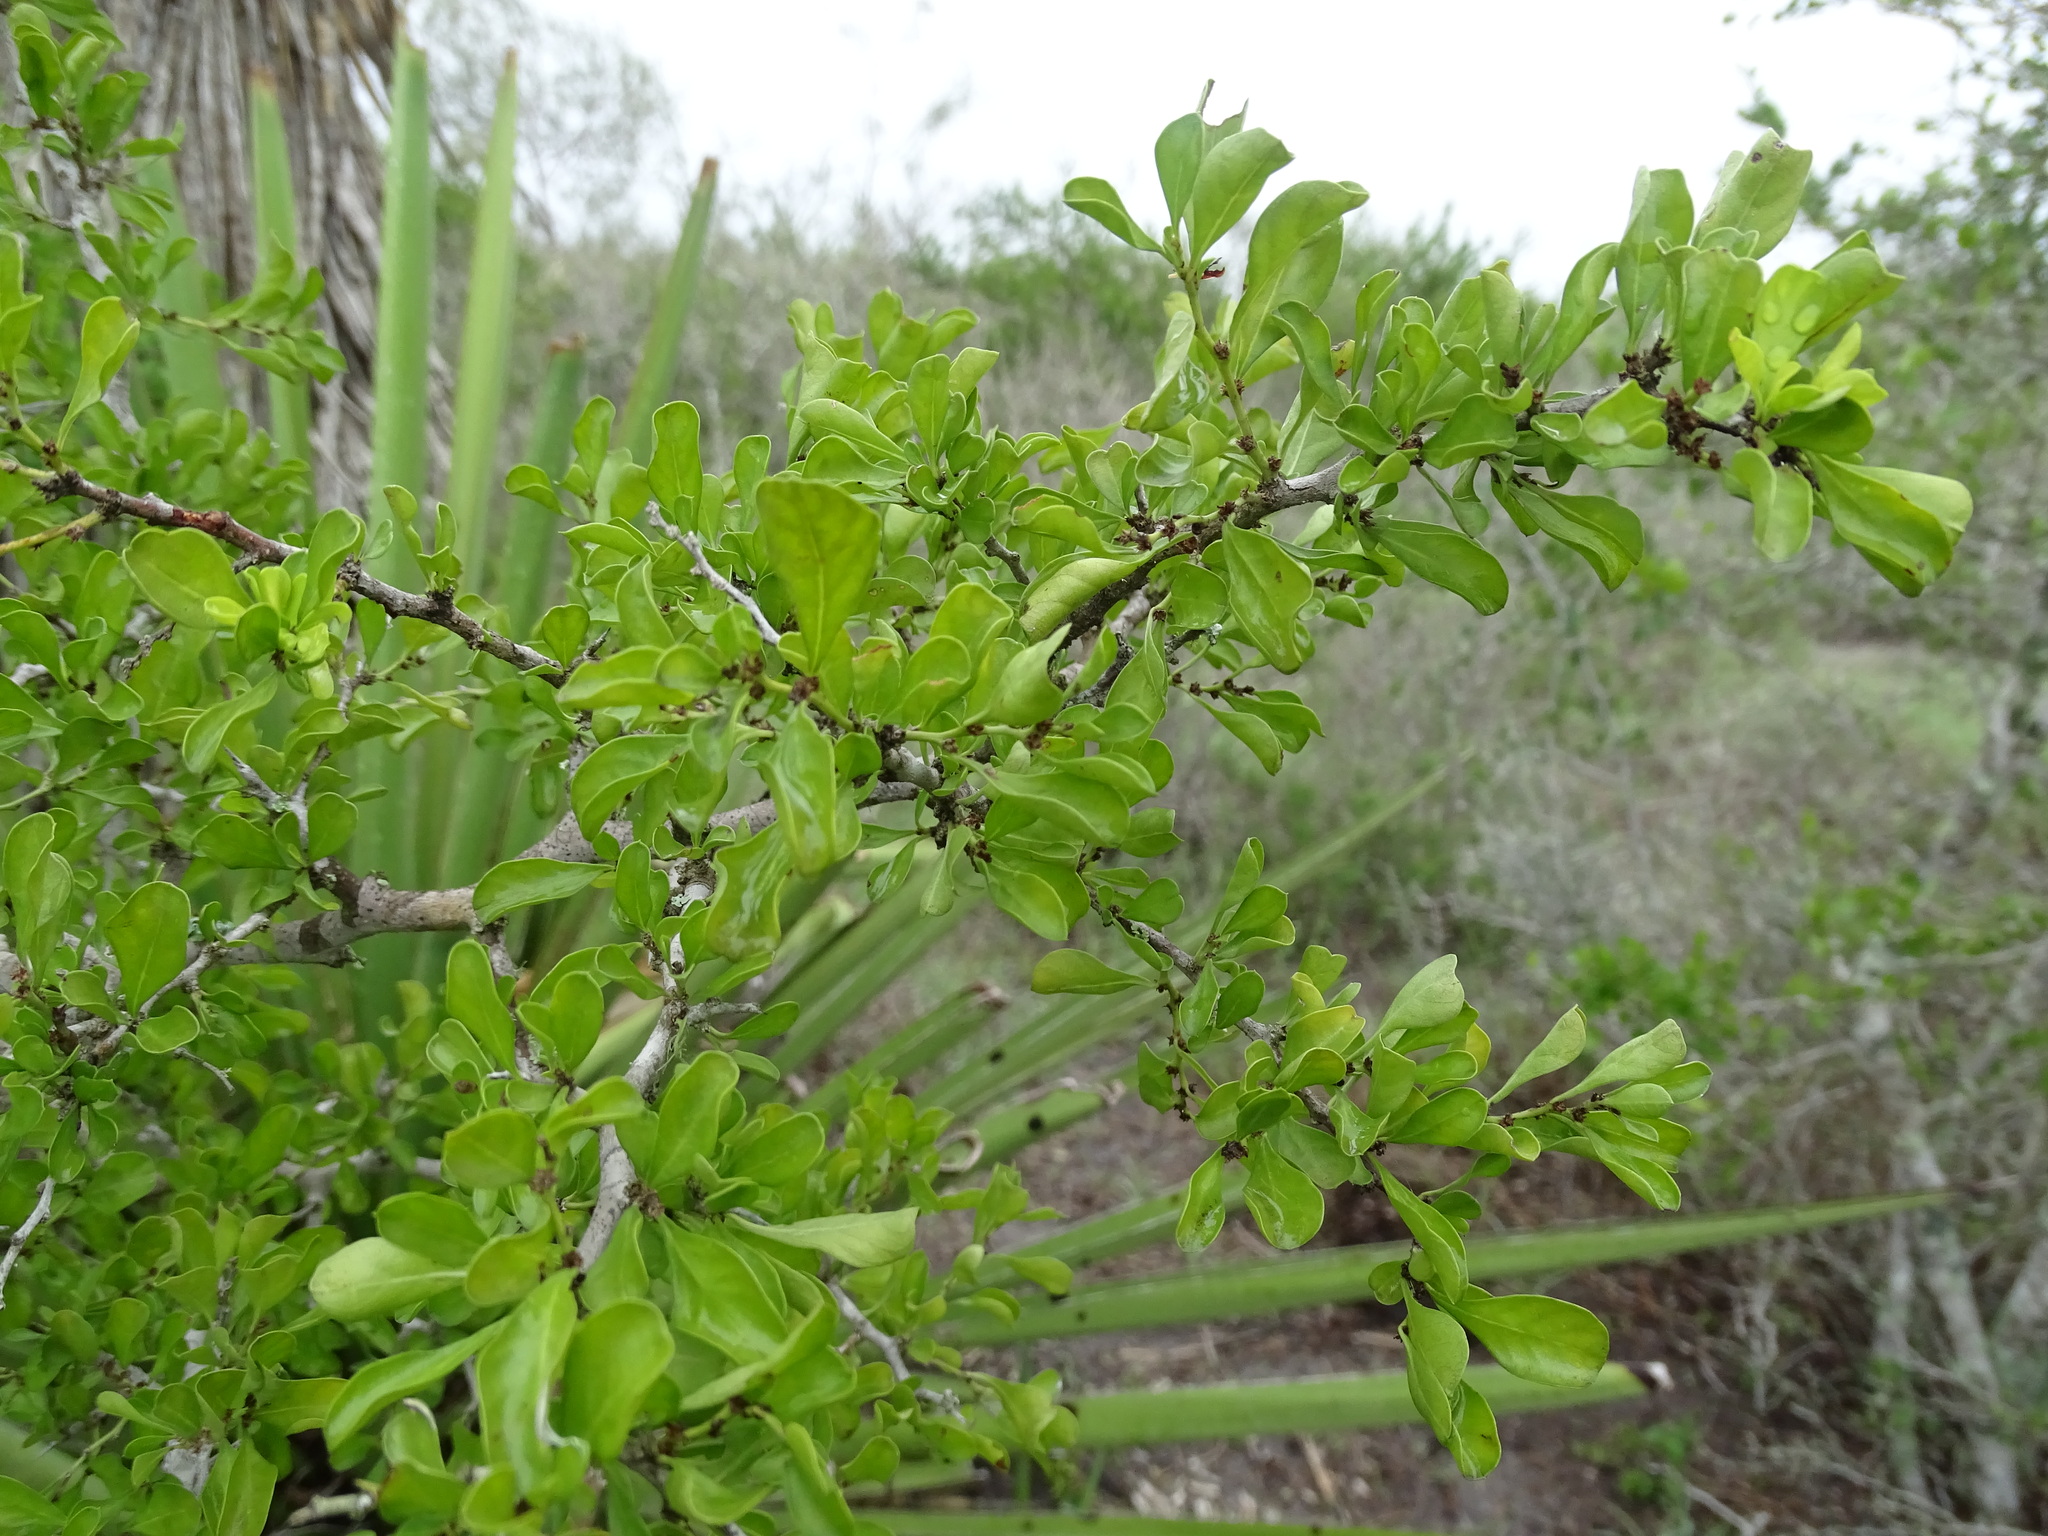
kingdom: Plantae
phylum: Tracheophyta
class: Magnoliopsida
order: Rosales
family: Rhamnaceae
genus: Condalia
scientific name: Condalia hookeri
